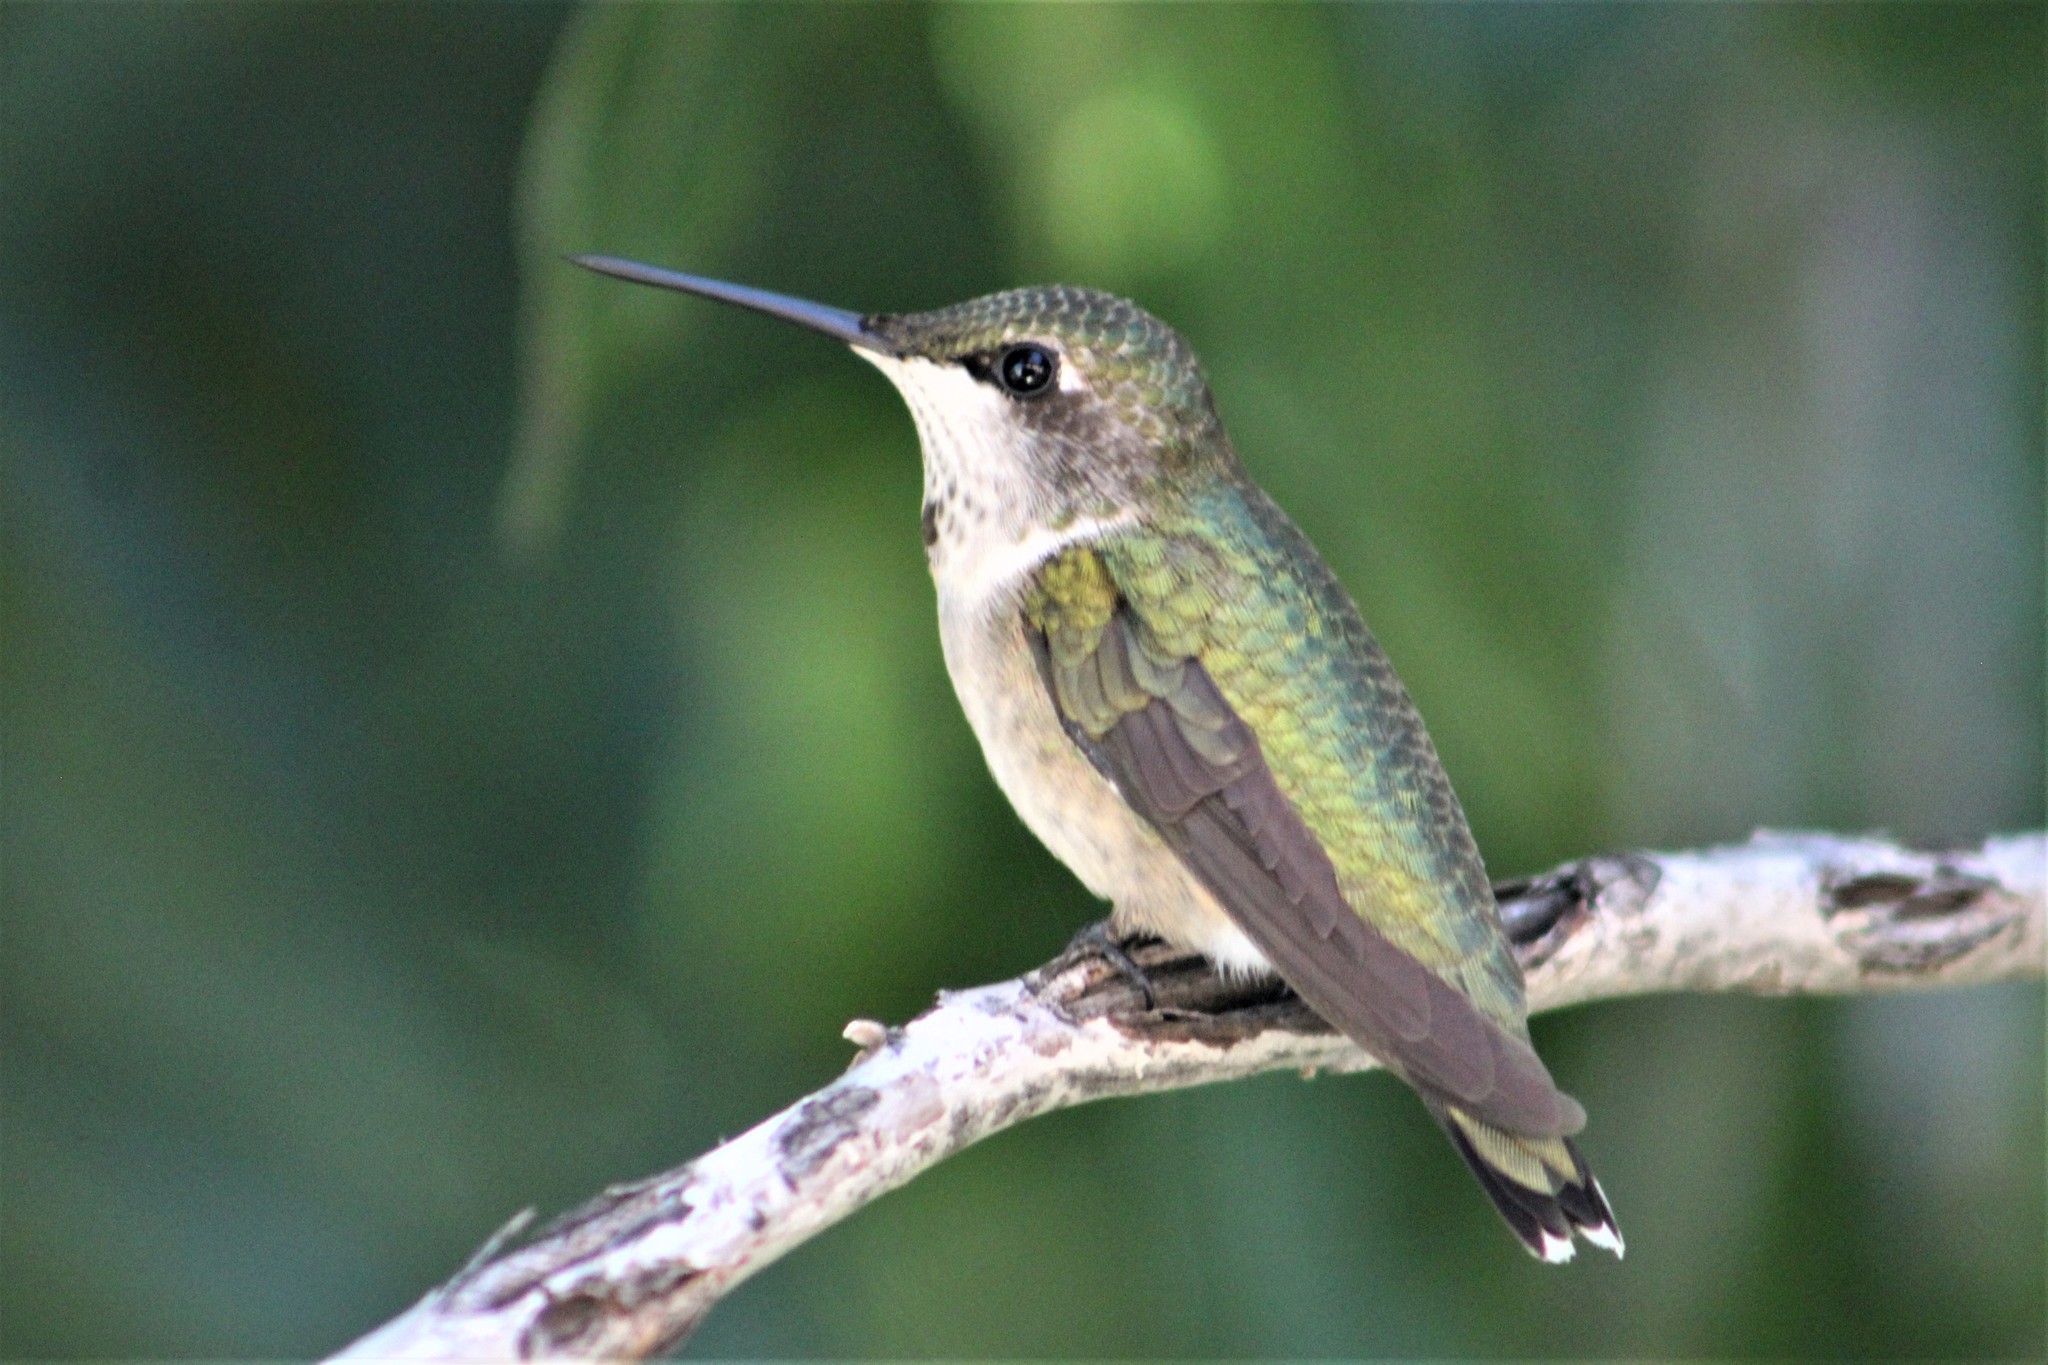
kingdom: Animalia
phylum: Chordata
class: Aves
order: Apodiformes
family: Trochilidae
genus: Archilochus
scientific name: Archilochus colubris
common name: Ruby-throated hummingbird
